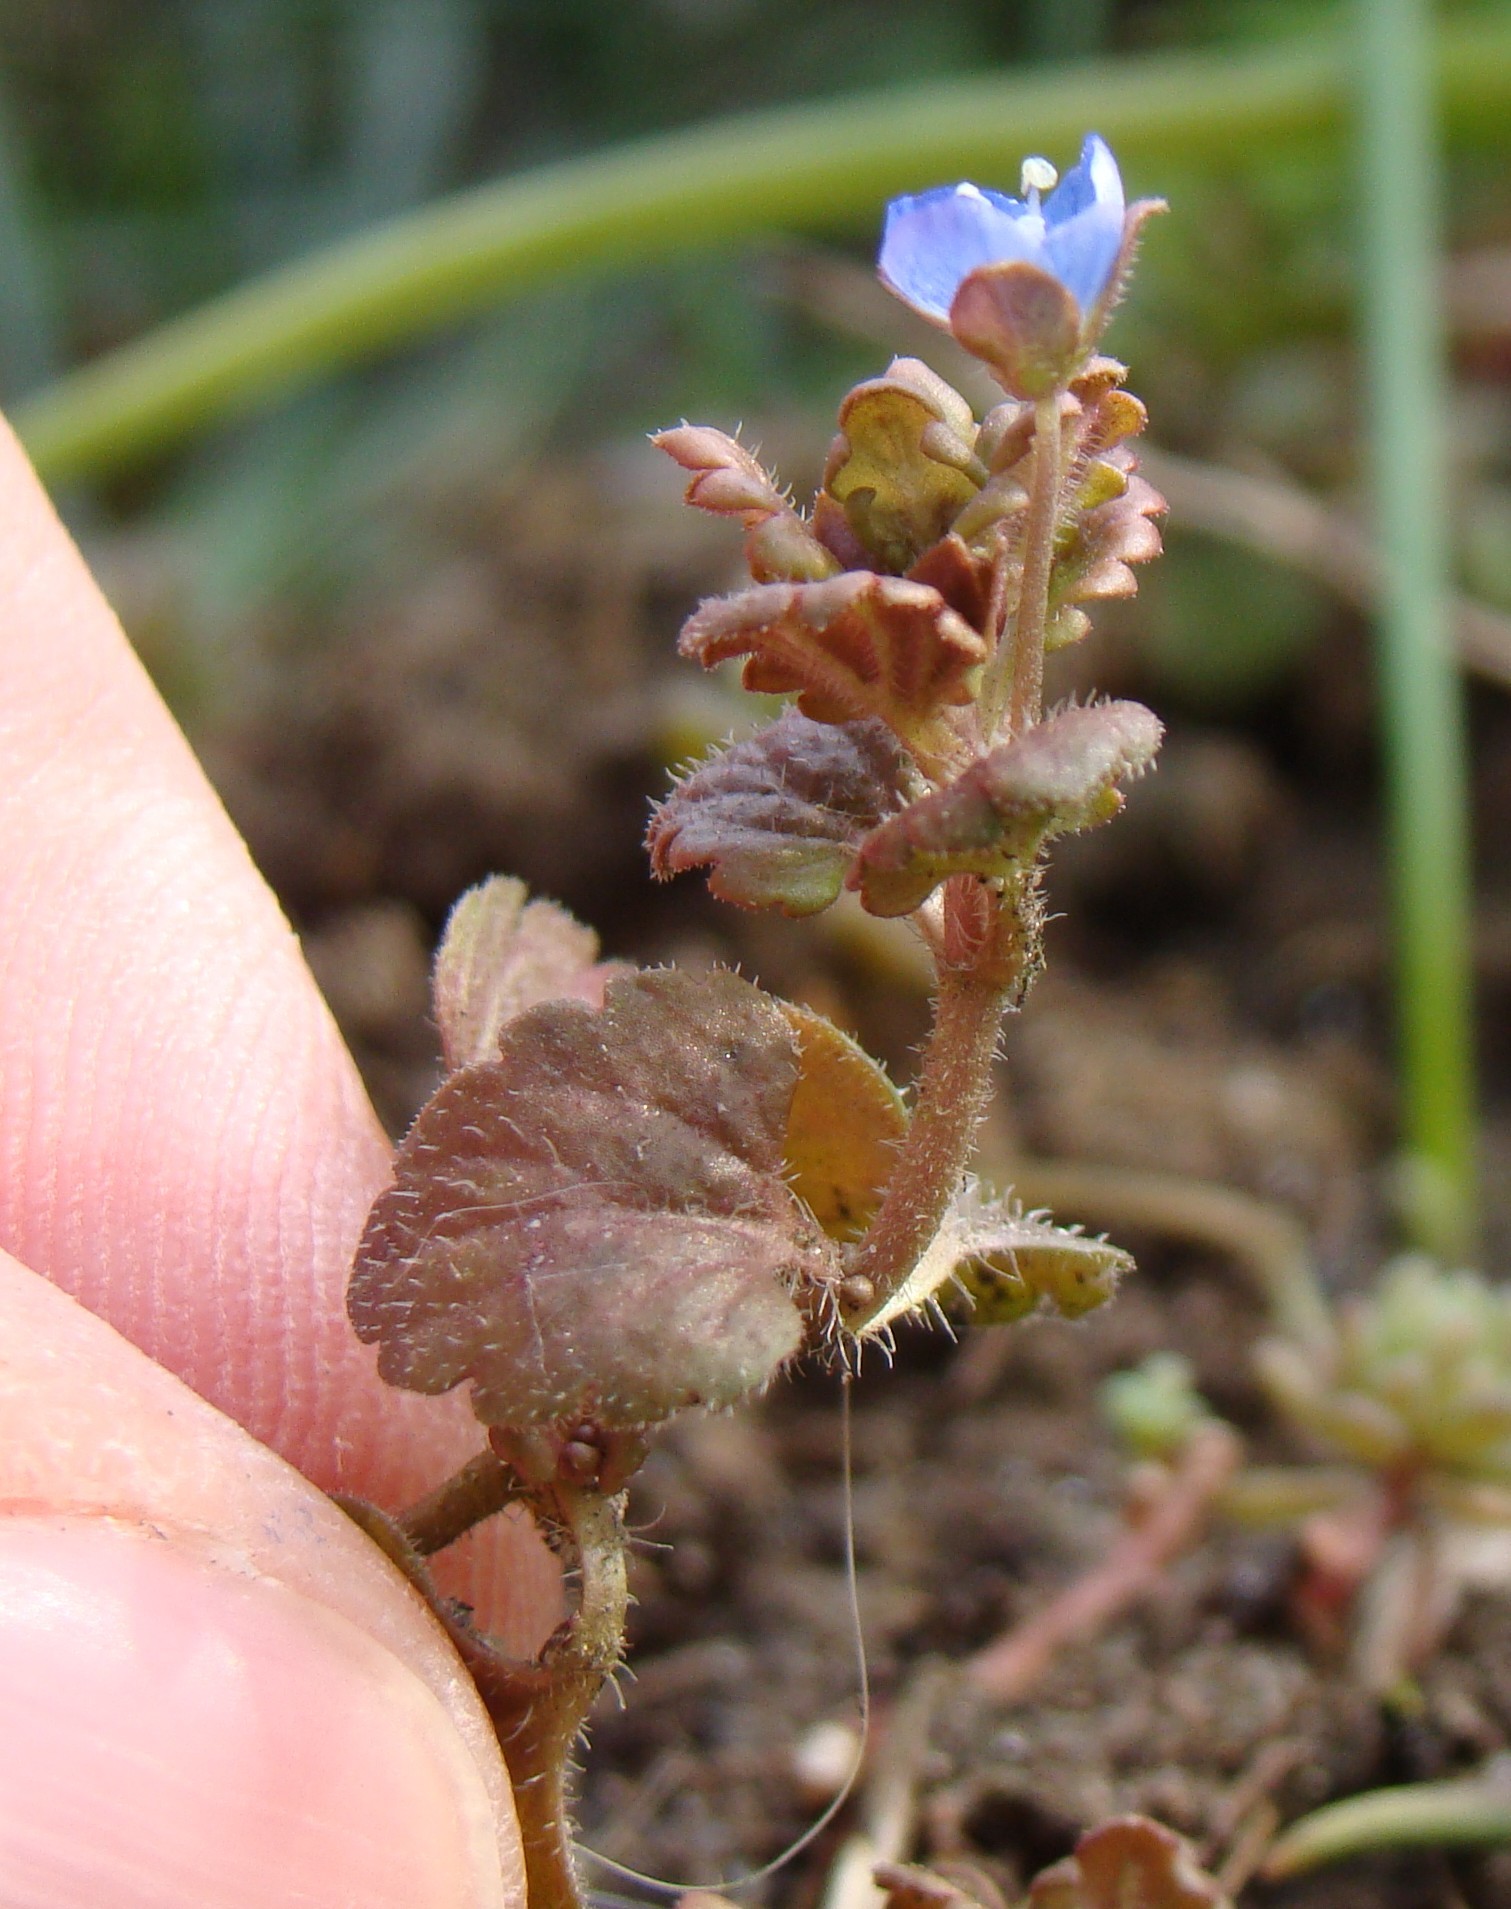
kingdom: Plantae
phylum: Tracheophyta
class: Magnoliopsida
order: Lamiales
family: Plantaginaceae
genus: Veronica
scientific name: Veronica polita
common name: Grey field-speedwell
